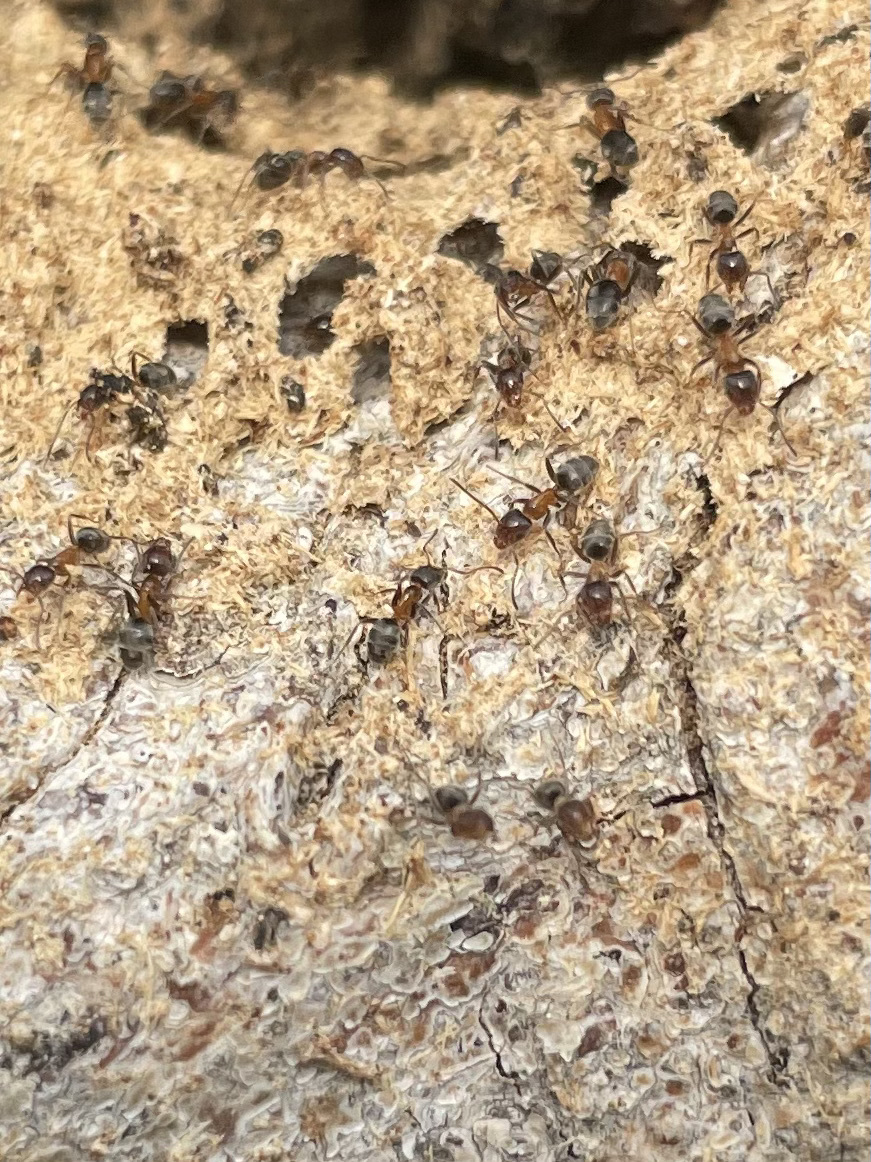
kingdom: Animalia
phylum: Arthropoda
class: Insecta
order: Hymenoptera
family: Formicidae
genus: Liometopum
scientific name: Liometopum occidentale
